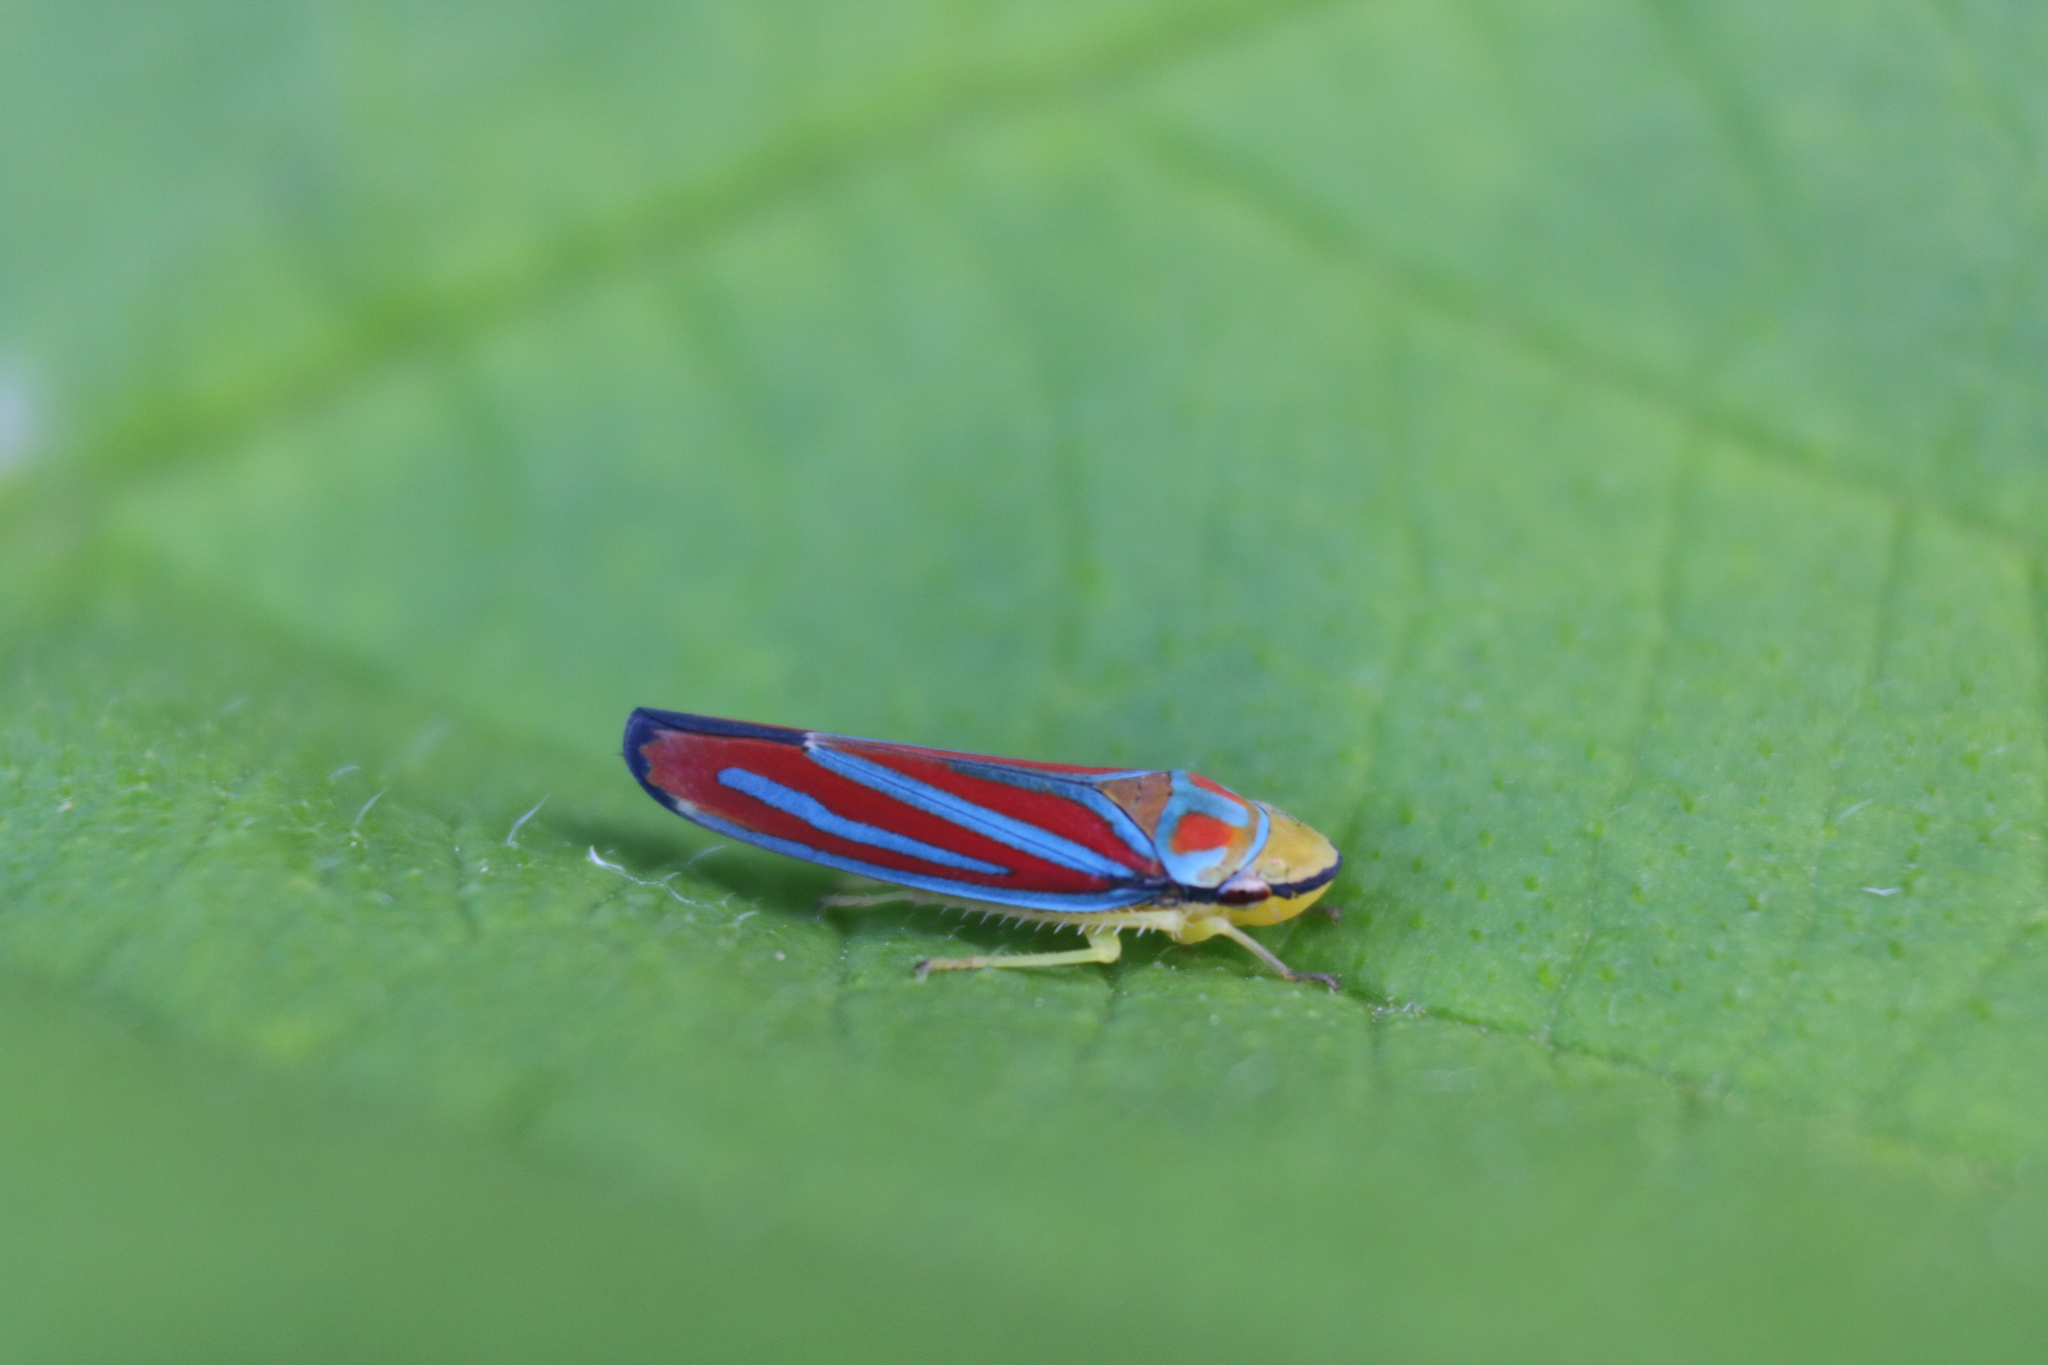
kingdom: Animalia
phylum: Arthropoda
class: Insecta
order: Hemiptera
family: Cicadellidae
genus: Graphocephala
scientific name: Graphocephala coccinea
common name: Candy-striped leafhopper
